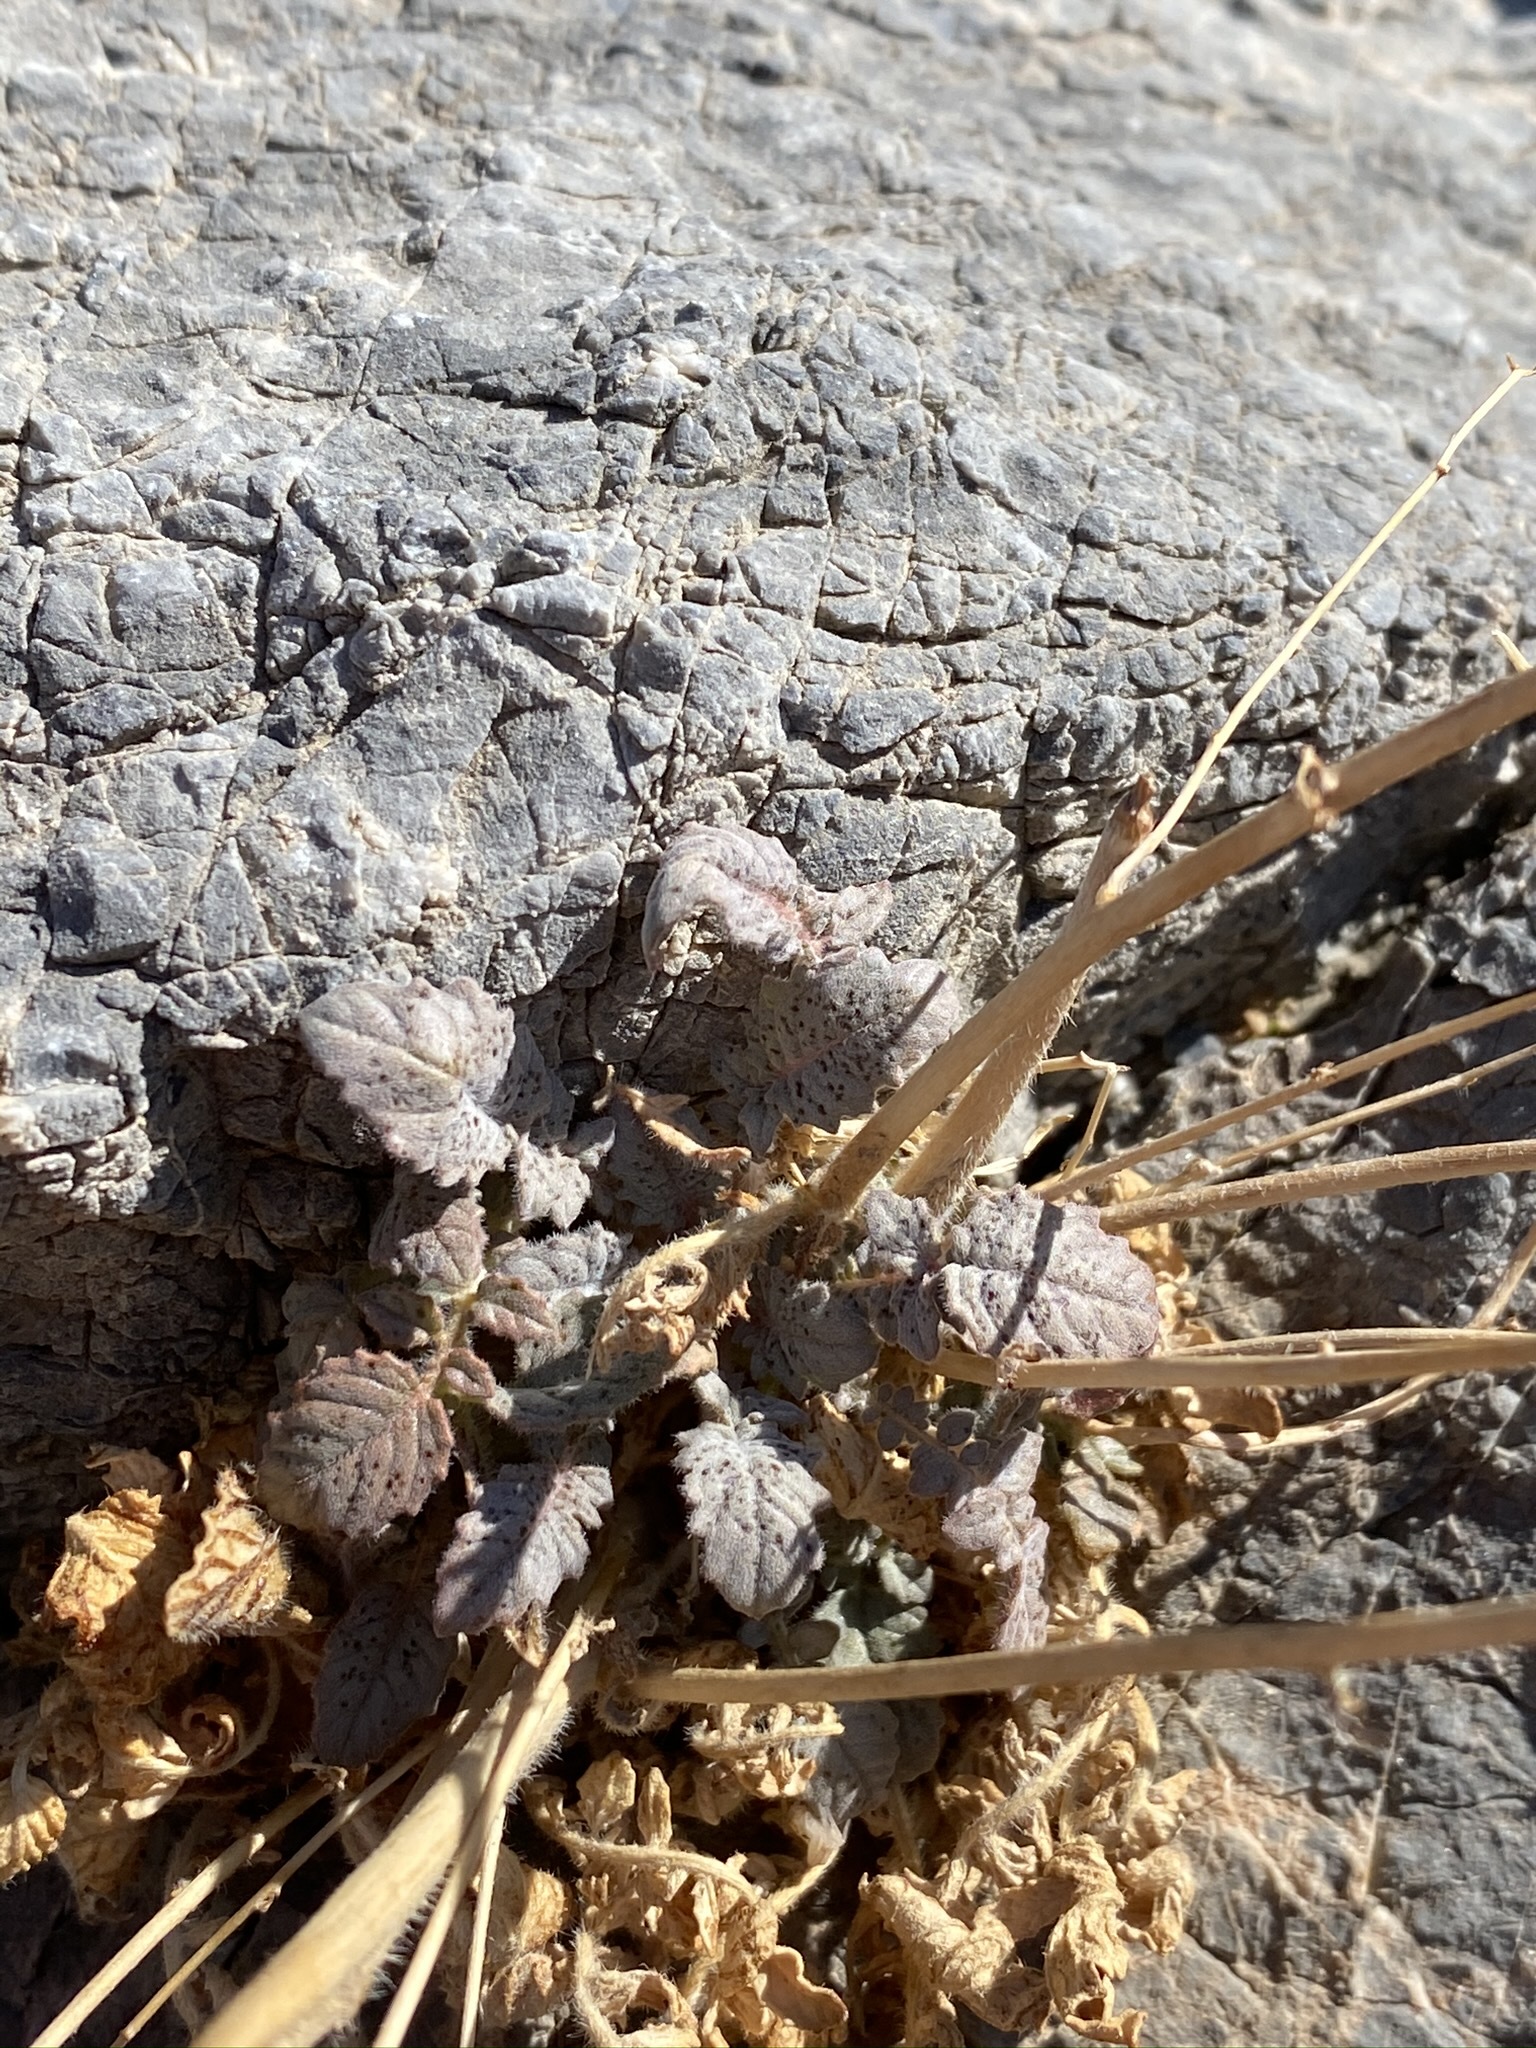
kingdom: Plantae
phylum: Tracheophyta
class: Magnoliopsida
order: Myrtales
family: Onagraceae
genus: Chylismia
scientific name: Chylismia walkeri
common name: Walker's suncup
